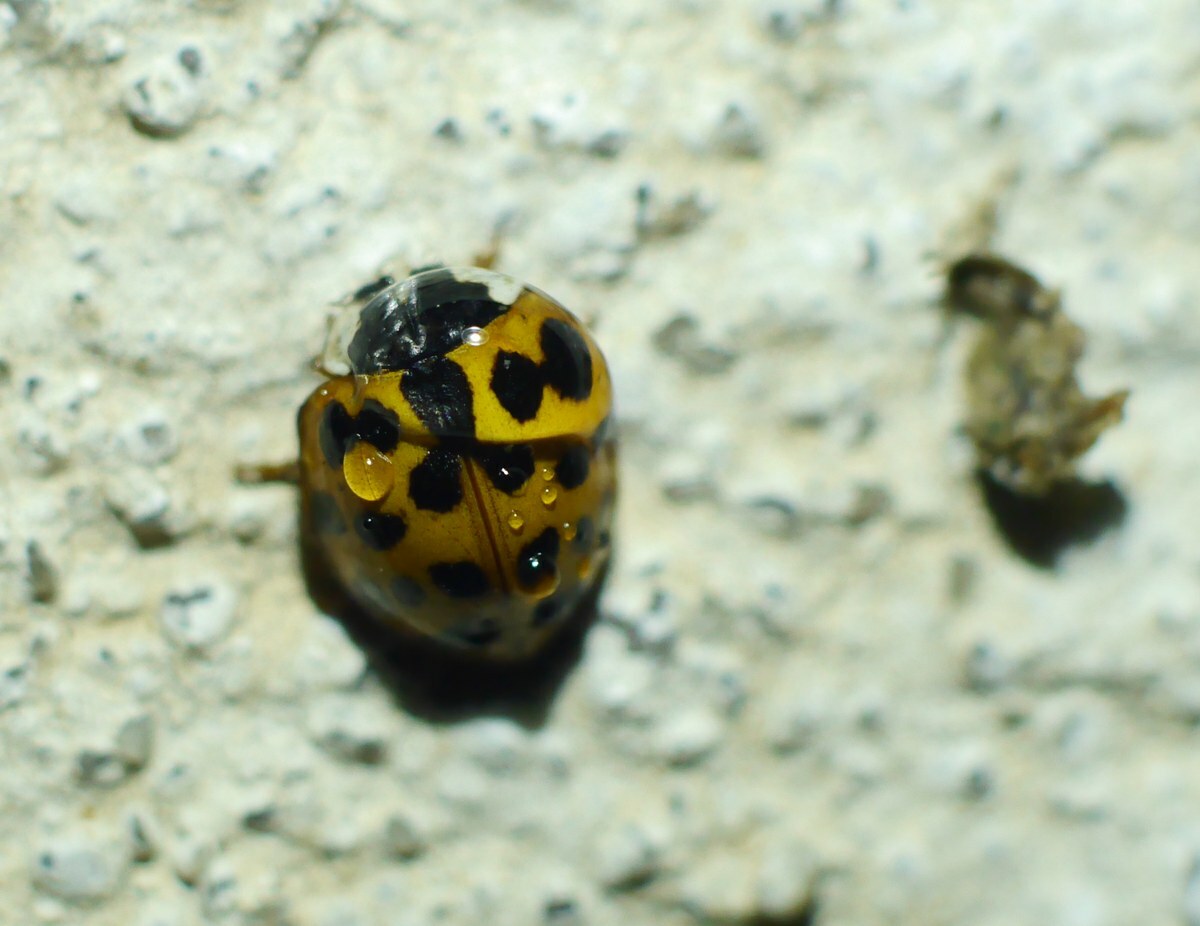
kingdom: Animalia
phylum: Arthropoda
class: Insecta
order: Coleoptera
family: Coccinellidae
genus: Harmonia
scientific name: Harmonia axyridis
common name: Harlequin ladybird
